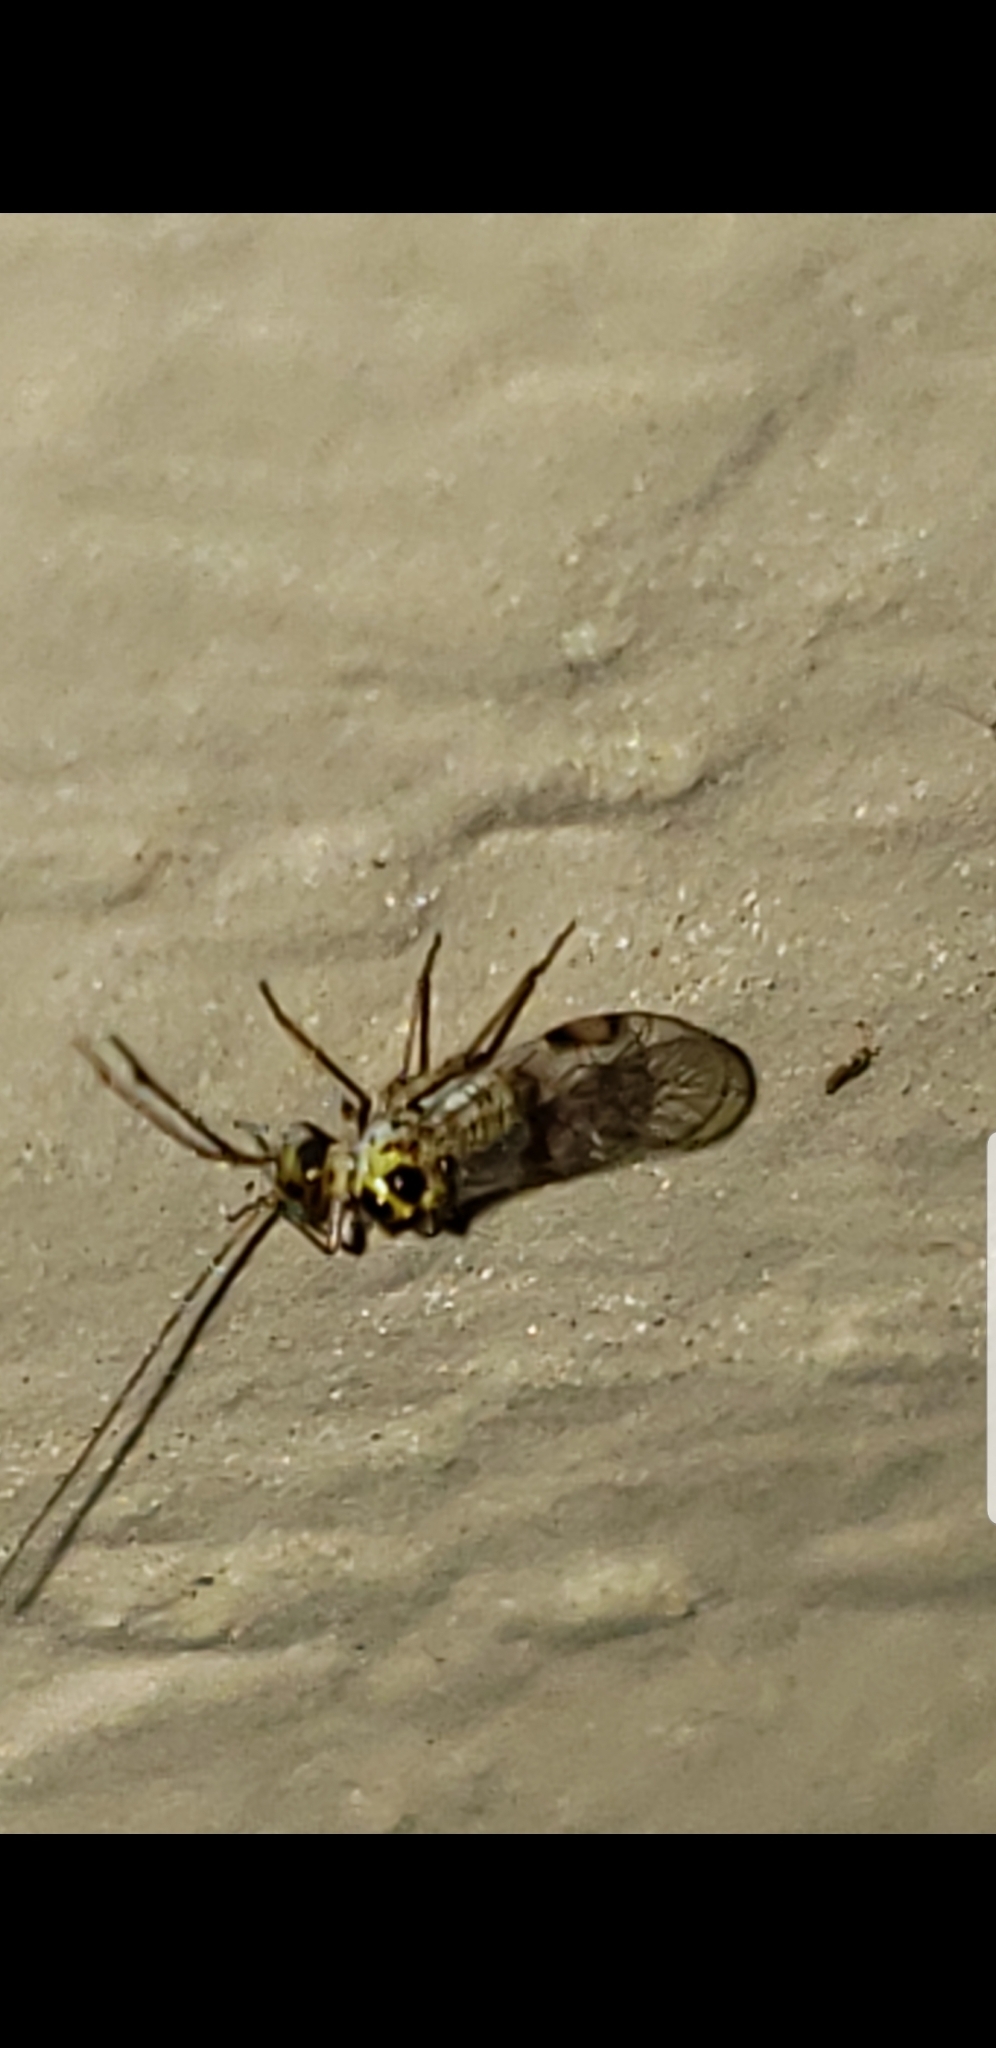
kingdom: Animalia
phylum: Arthropoda
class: Insecta
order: Psocodea
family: Dasydemellidae
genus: Teliapsocus
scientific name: Teliapsocus conterminus
